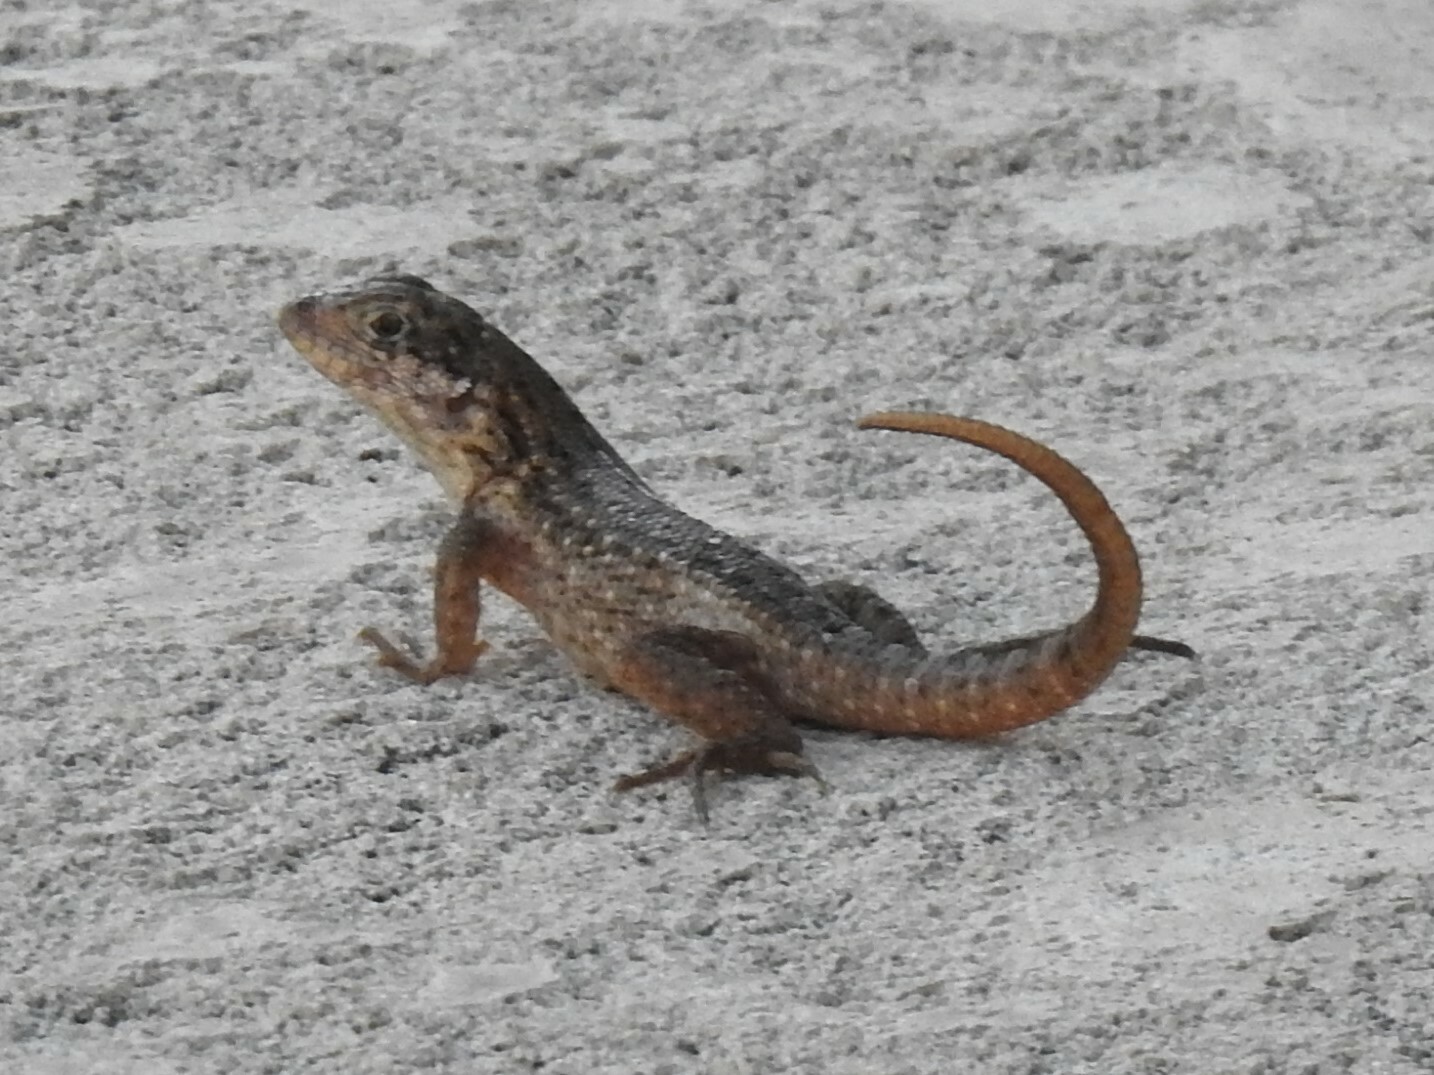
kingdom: Animalia
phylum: Chordata
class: Squamata
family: Leiocephalidae
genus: Leiocephalus
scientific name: Leiocephalus carinatus
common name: Northern curly-tailed lizard
